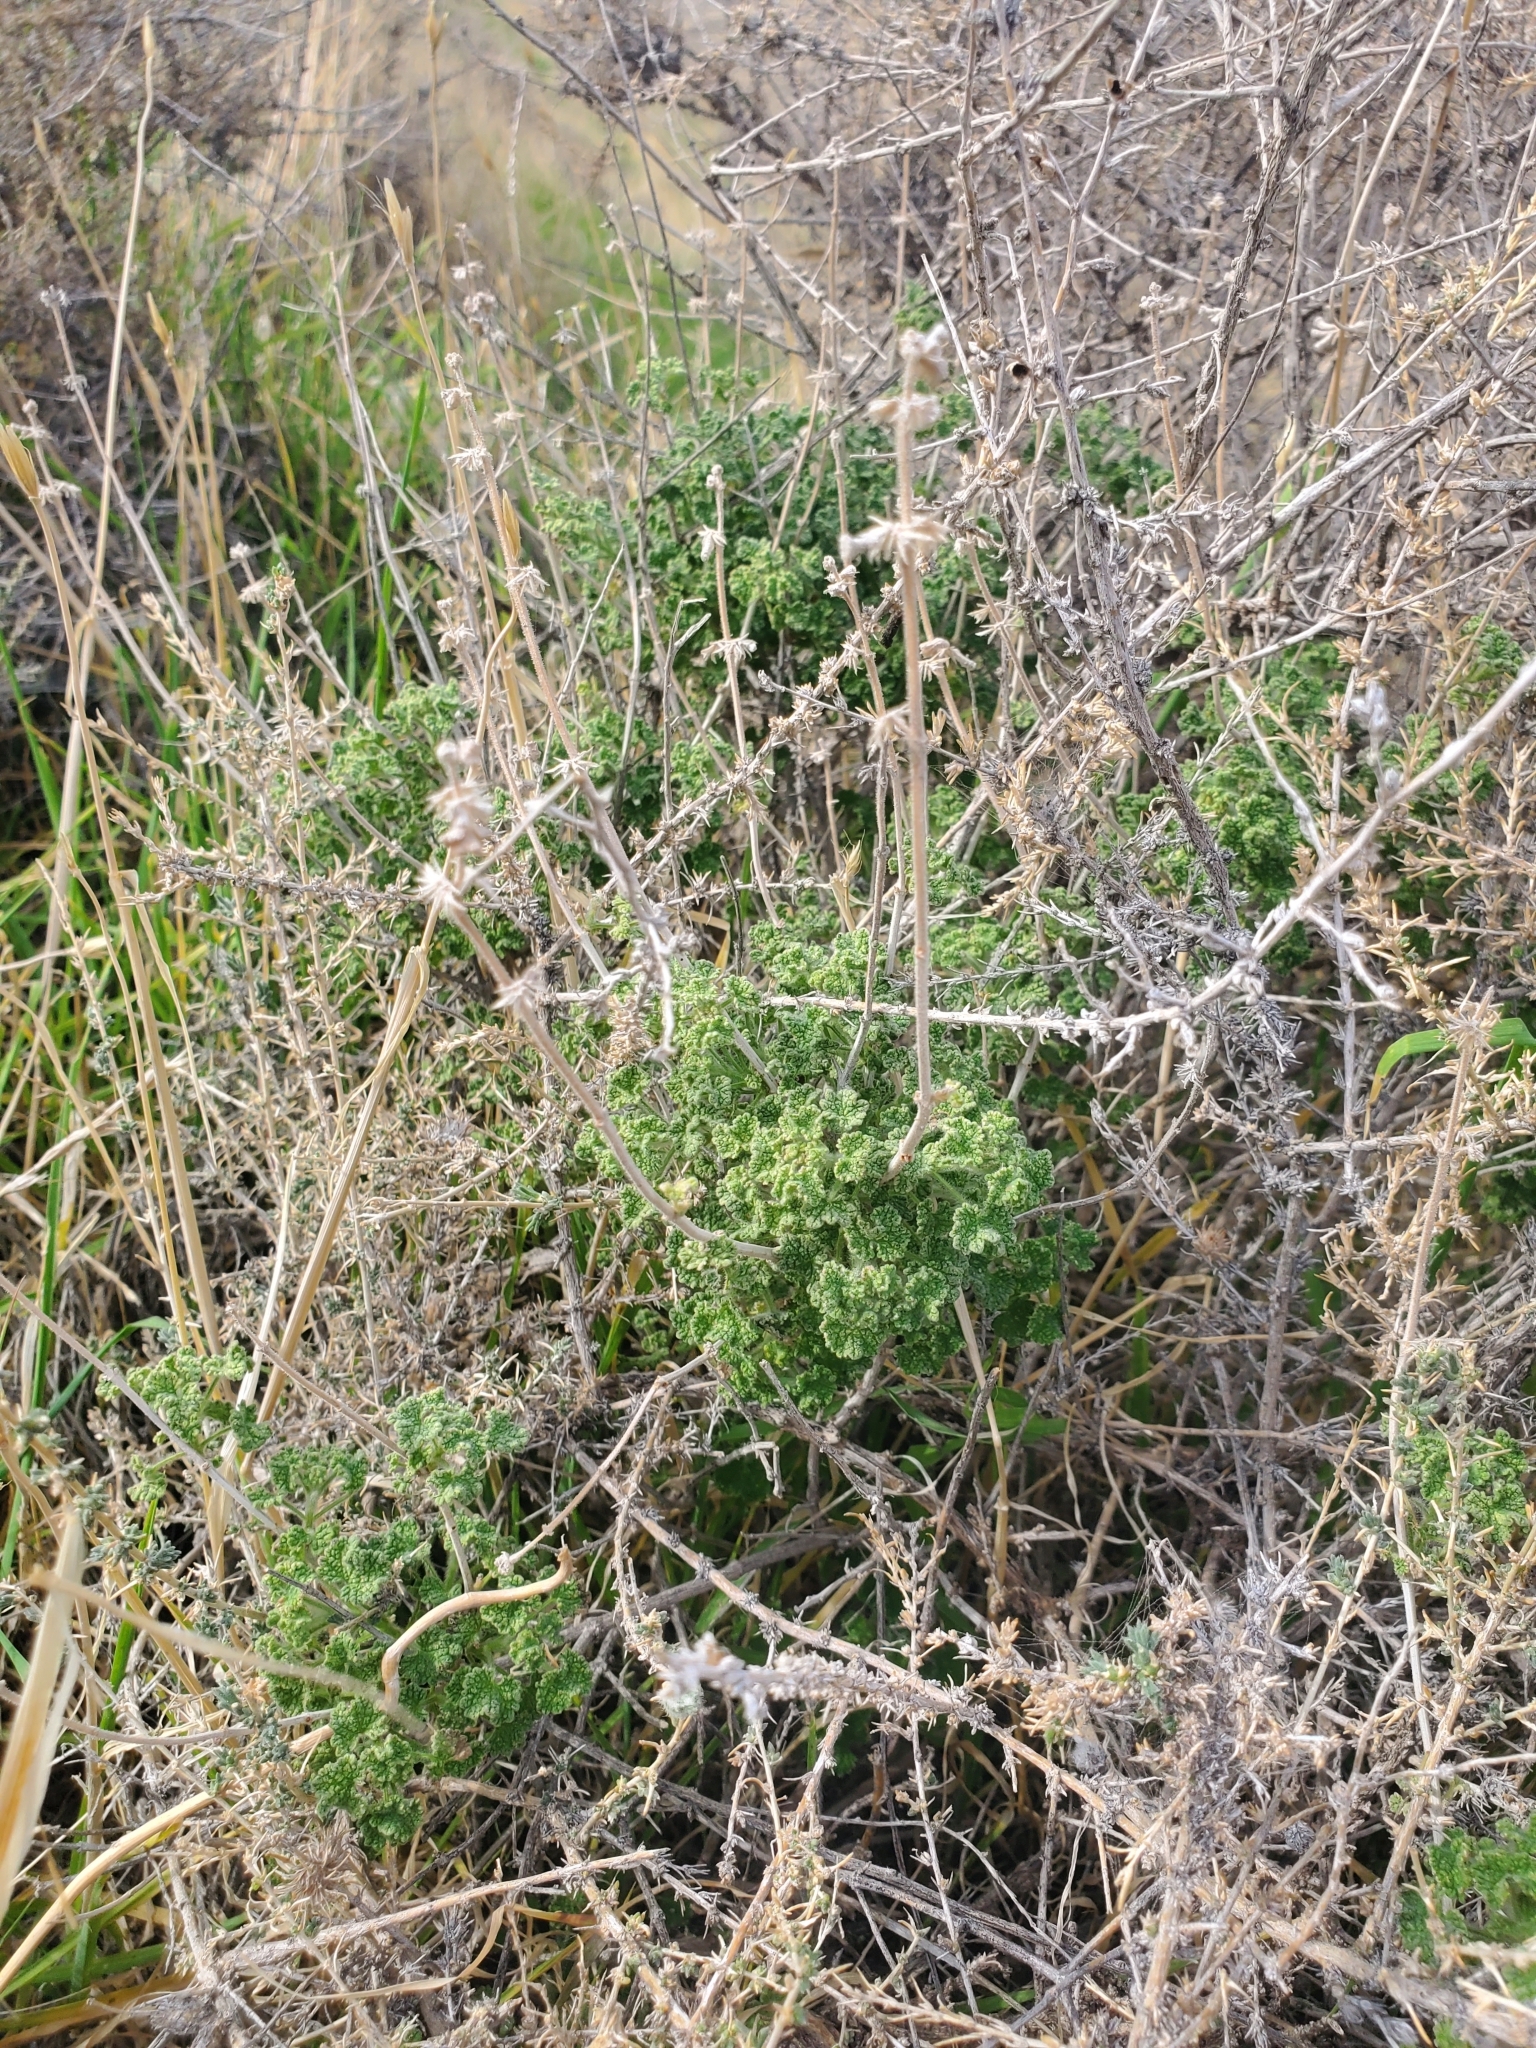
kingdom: Plantae
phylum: Tracheophyta
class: Magnoliopsida
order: Lamiales
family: Lamiaceae
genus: Pseudodictamnus
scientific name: Pseudodictamnus undulatus
